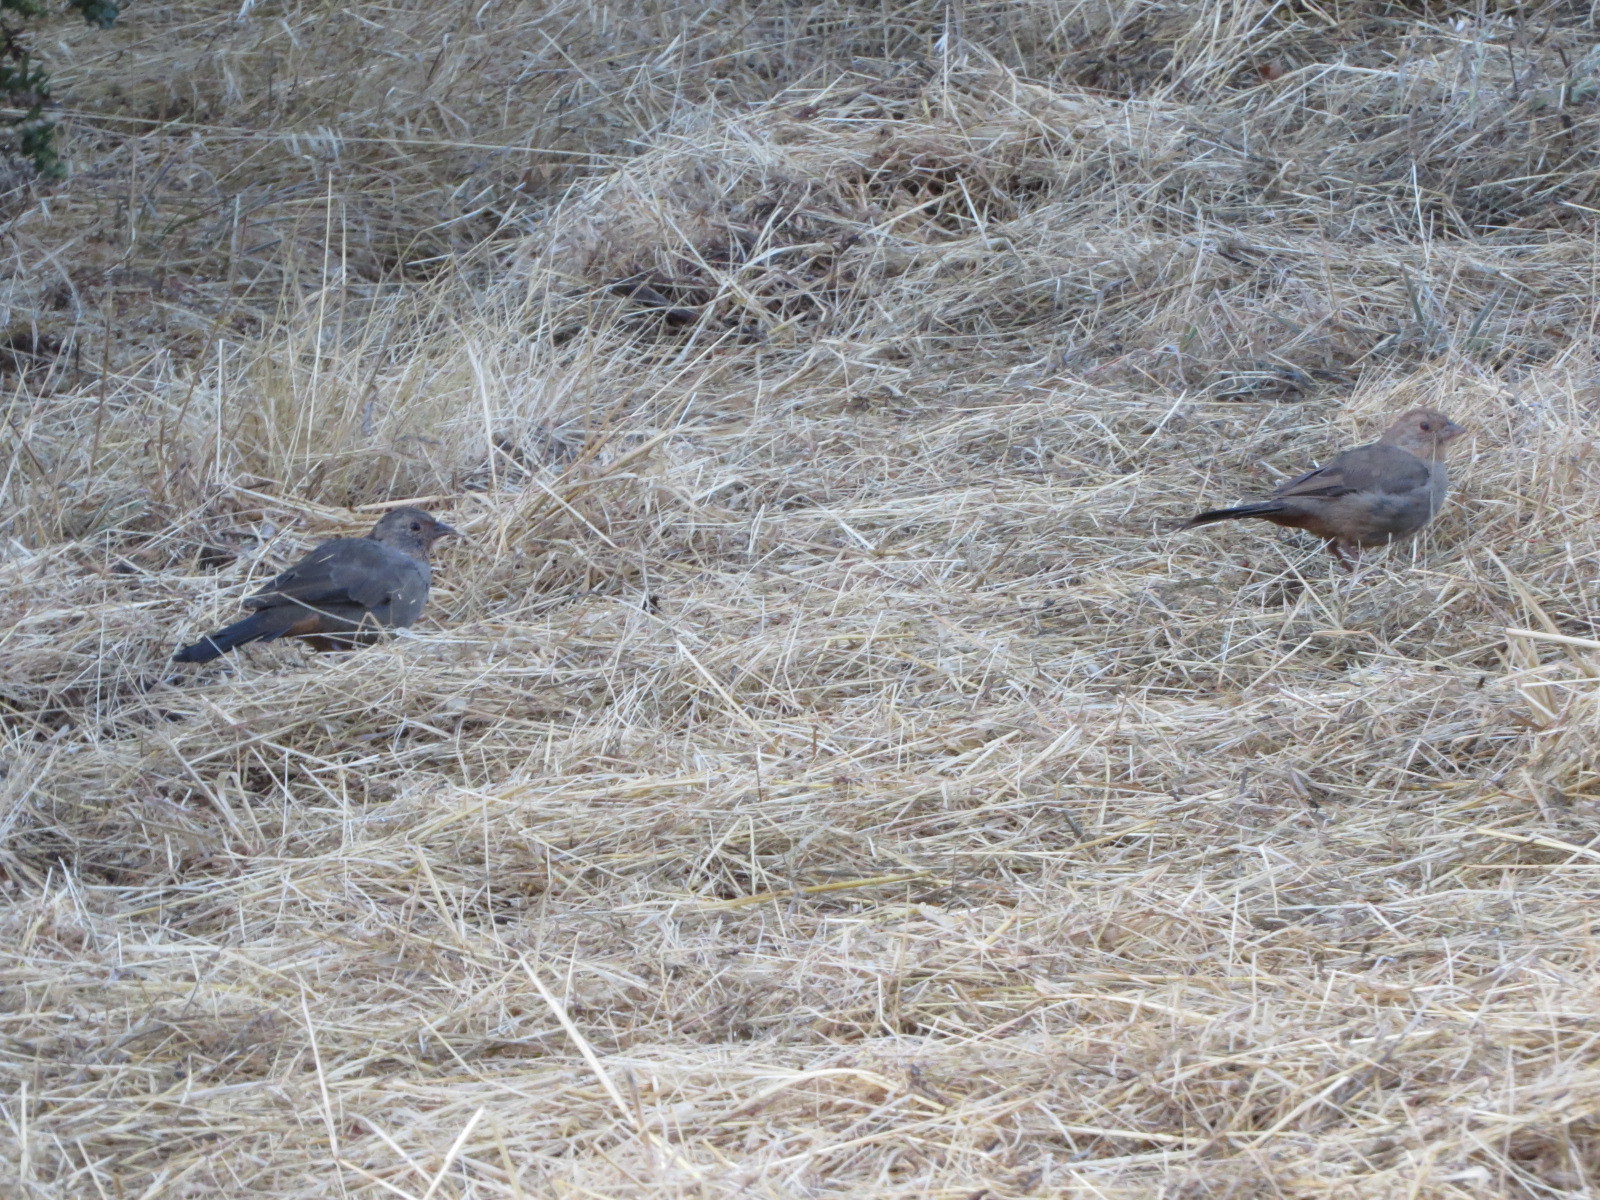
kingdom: Animalia
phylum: Chordata
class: Aves
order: Passeriformes
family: Passerellidae
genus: Melozone
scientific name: Melozone crissalis
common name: California towhee
